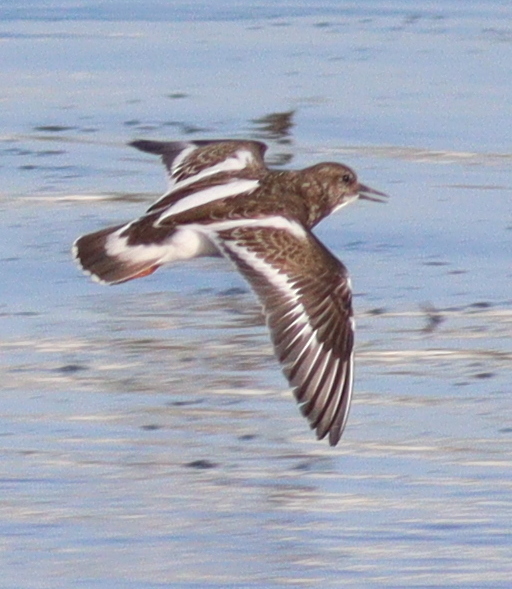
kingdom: Animalia
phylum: Chordata
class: Aves
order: Charadriiformes
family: Scolopacidae
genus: Arenaria
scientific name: Arenaria interpres
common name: Ruddy turnstone
